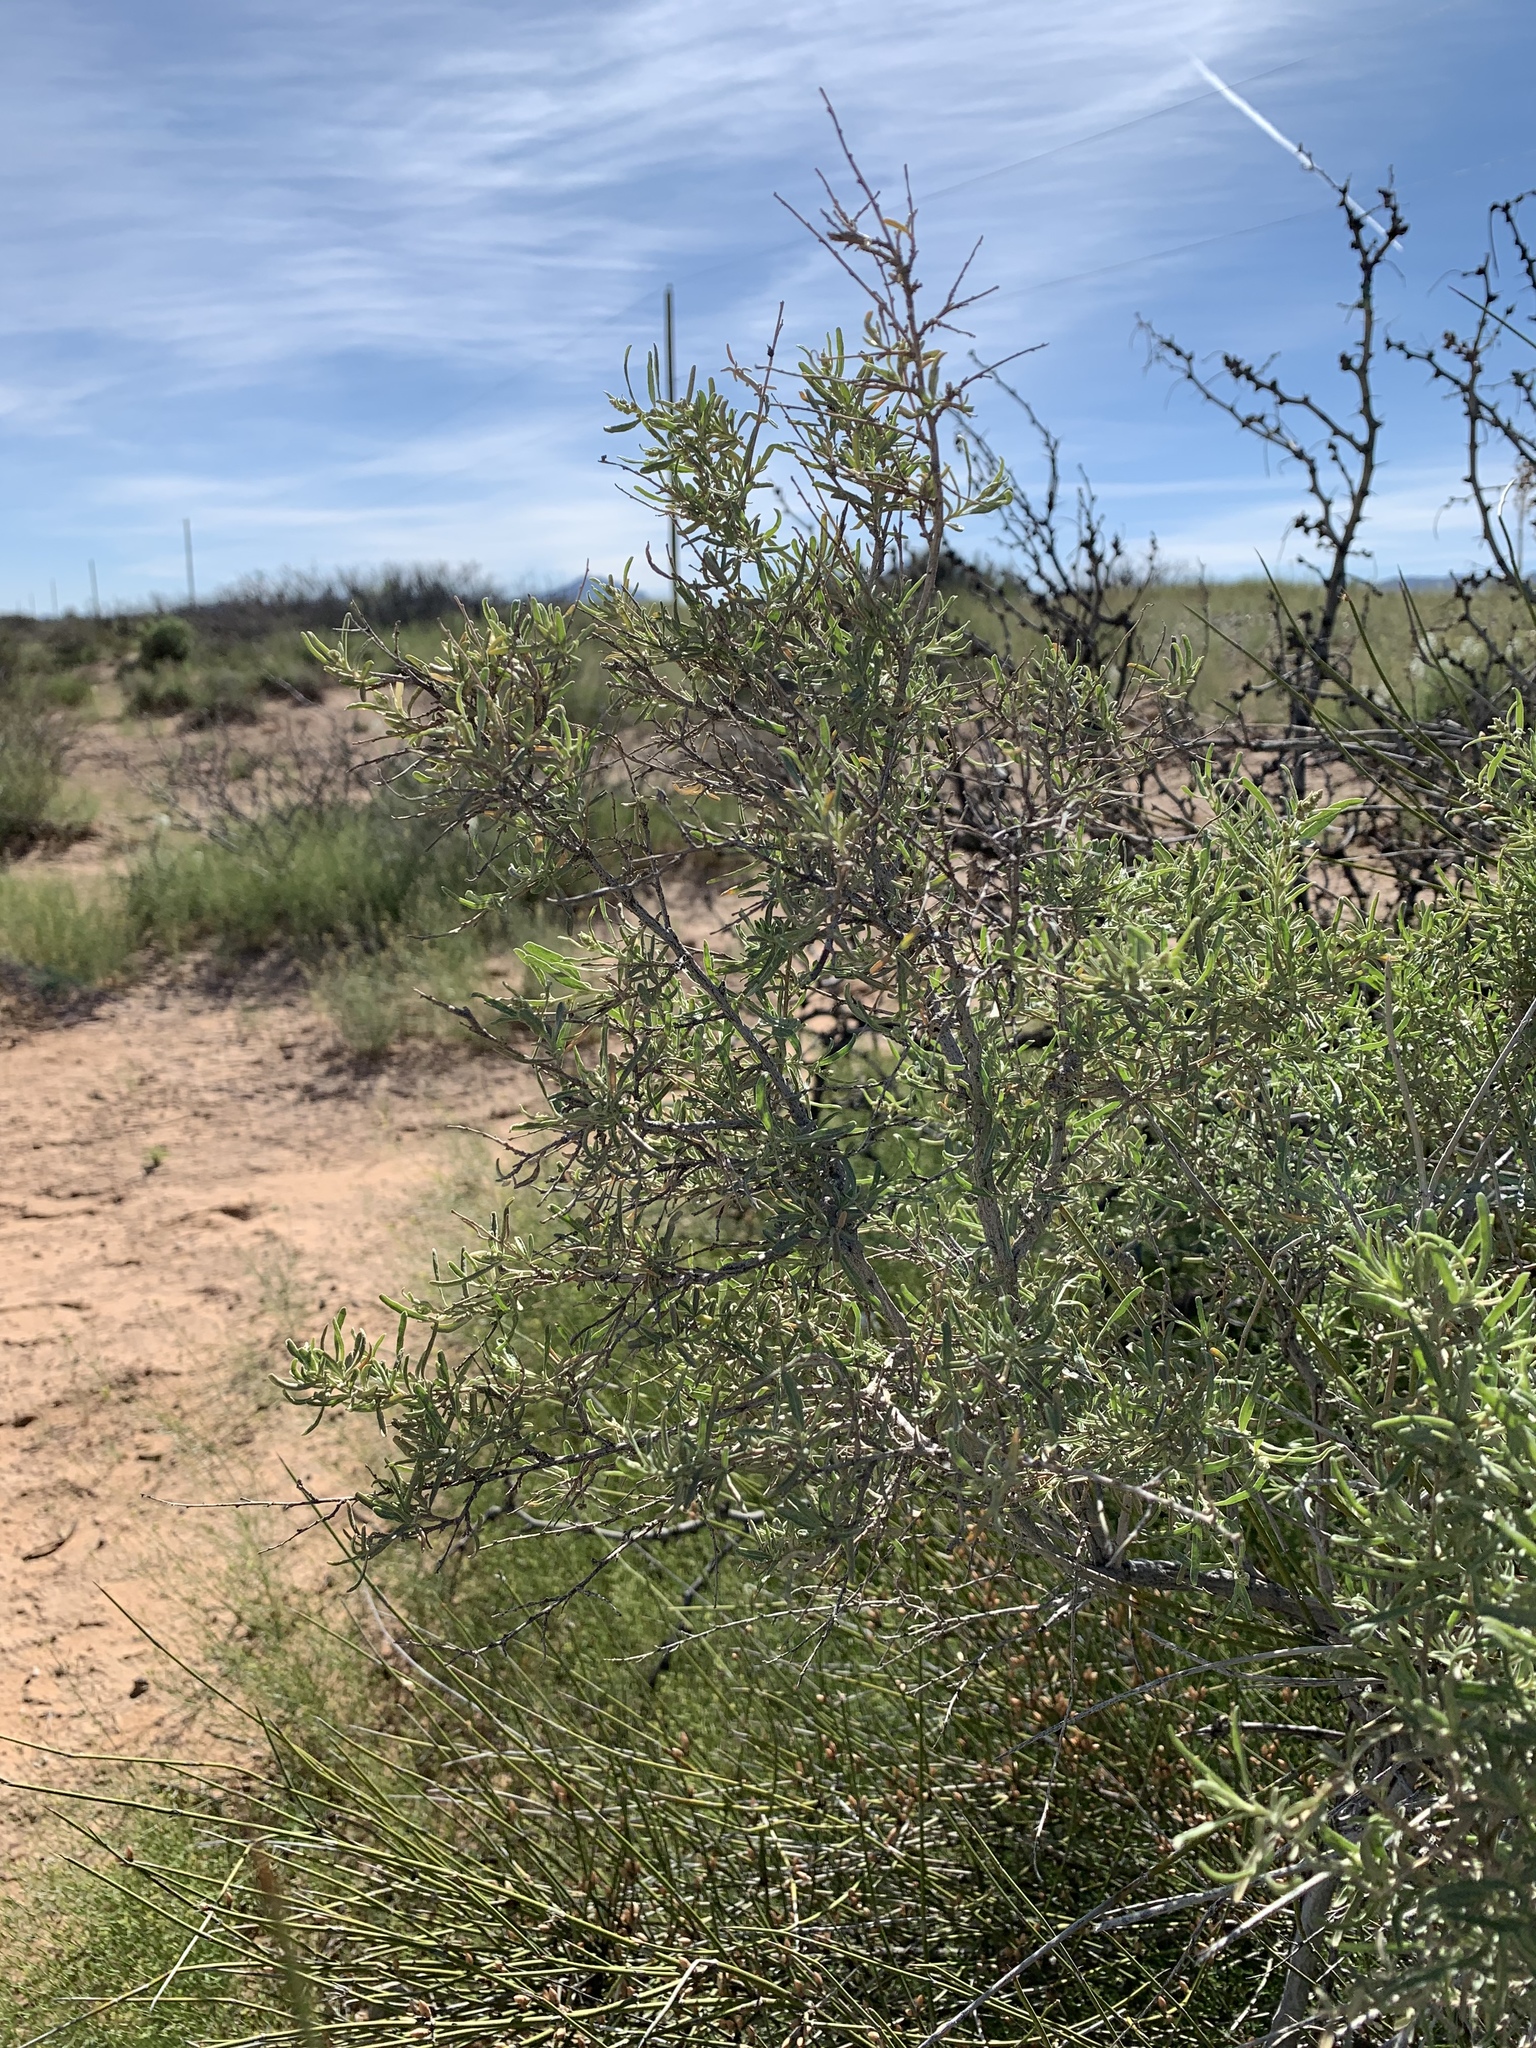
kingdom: Plantae
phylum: Tracheophyta
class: Magnoliopsida
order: Caryophyllales
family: Amaranthaceae
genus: Atriplex
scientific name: Atriplex canescens
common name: Four-wing saltbush
